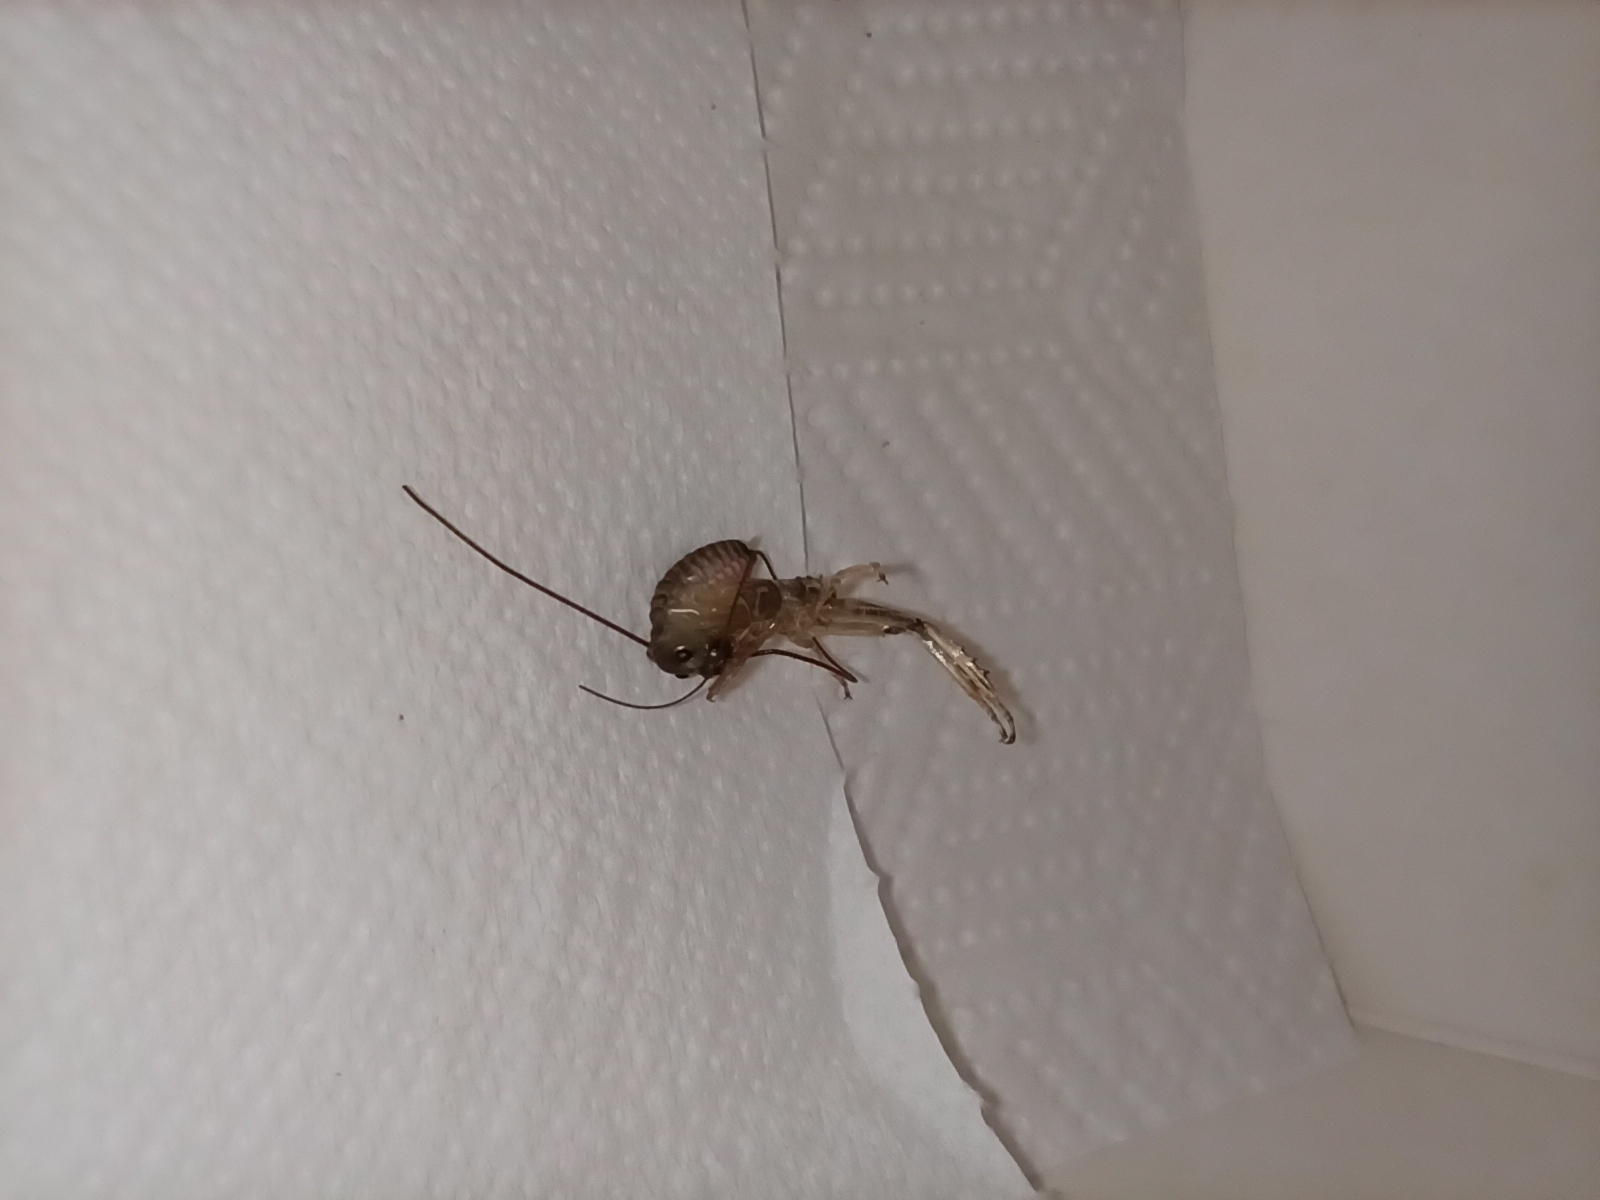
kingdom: Animalia
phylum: Arthropoda
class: Insecta
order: Orthoptera
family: Anostostomatidae
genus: Hemideina
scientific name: Hemideina thoracica
